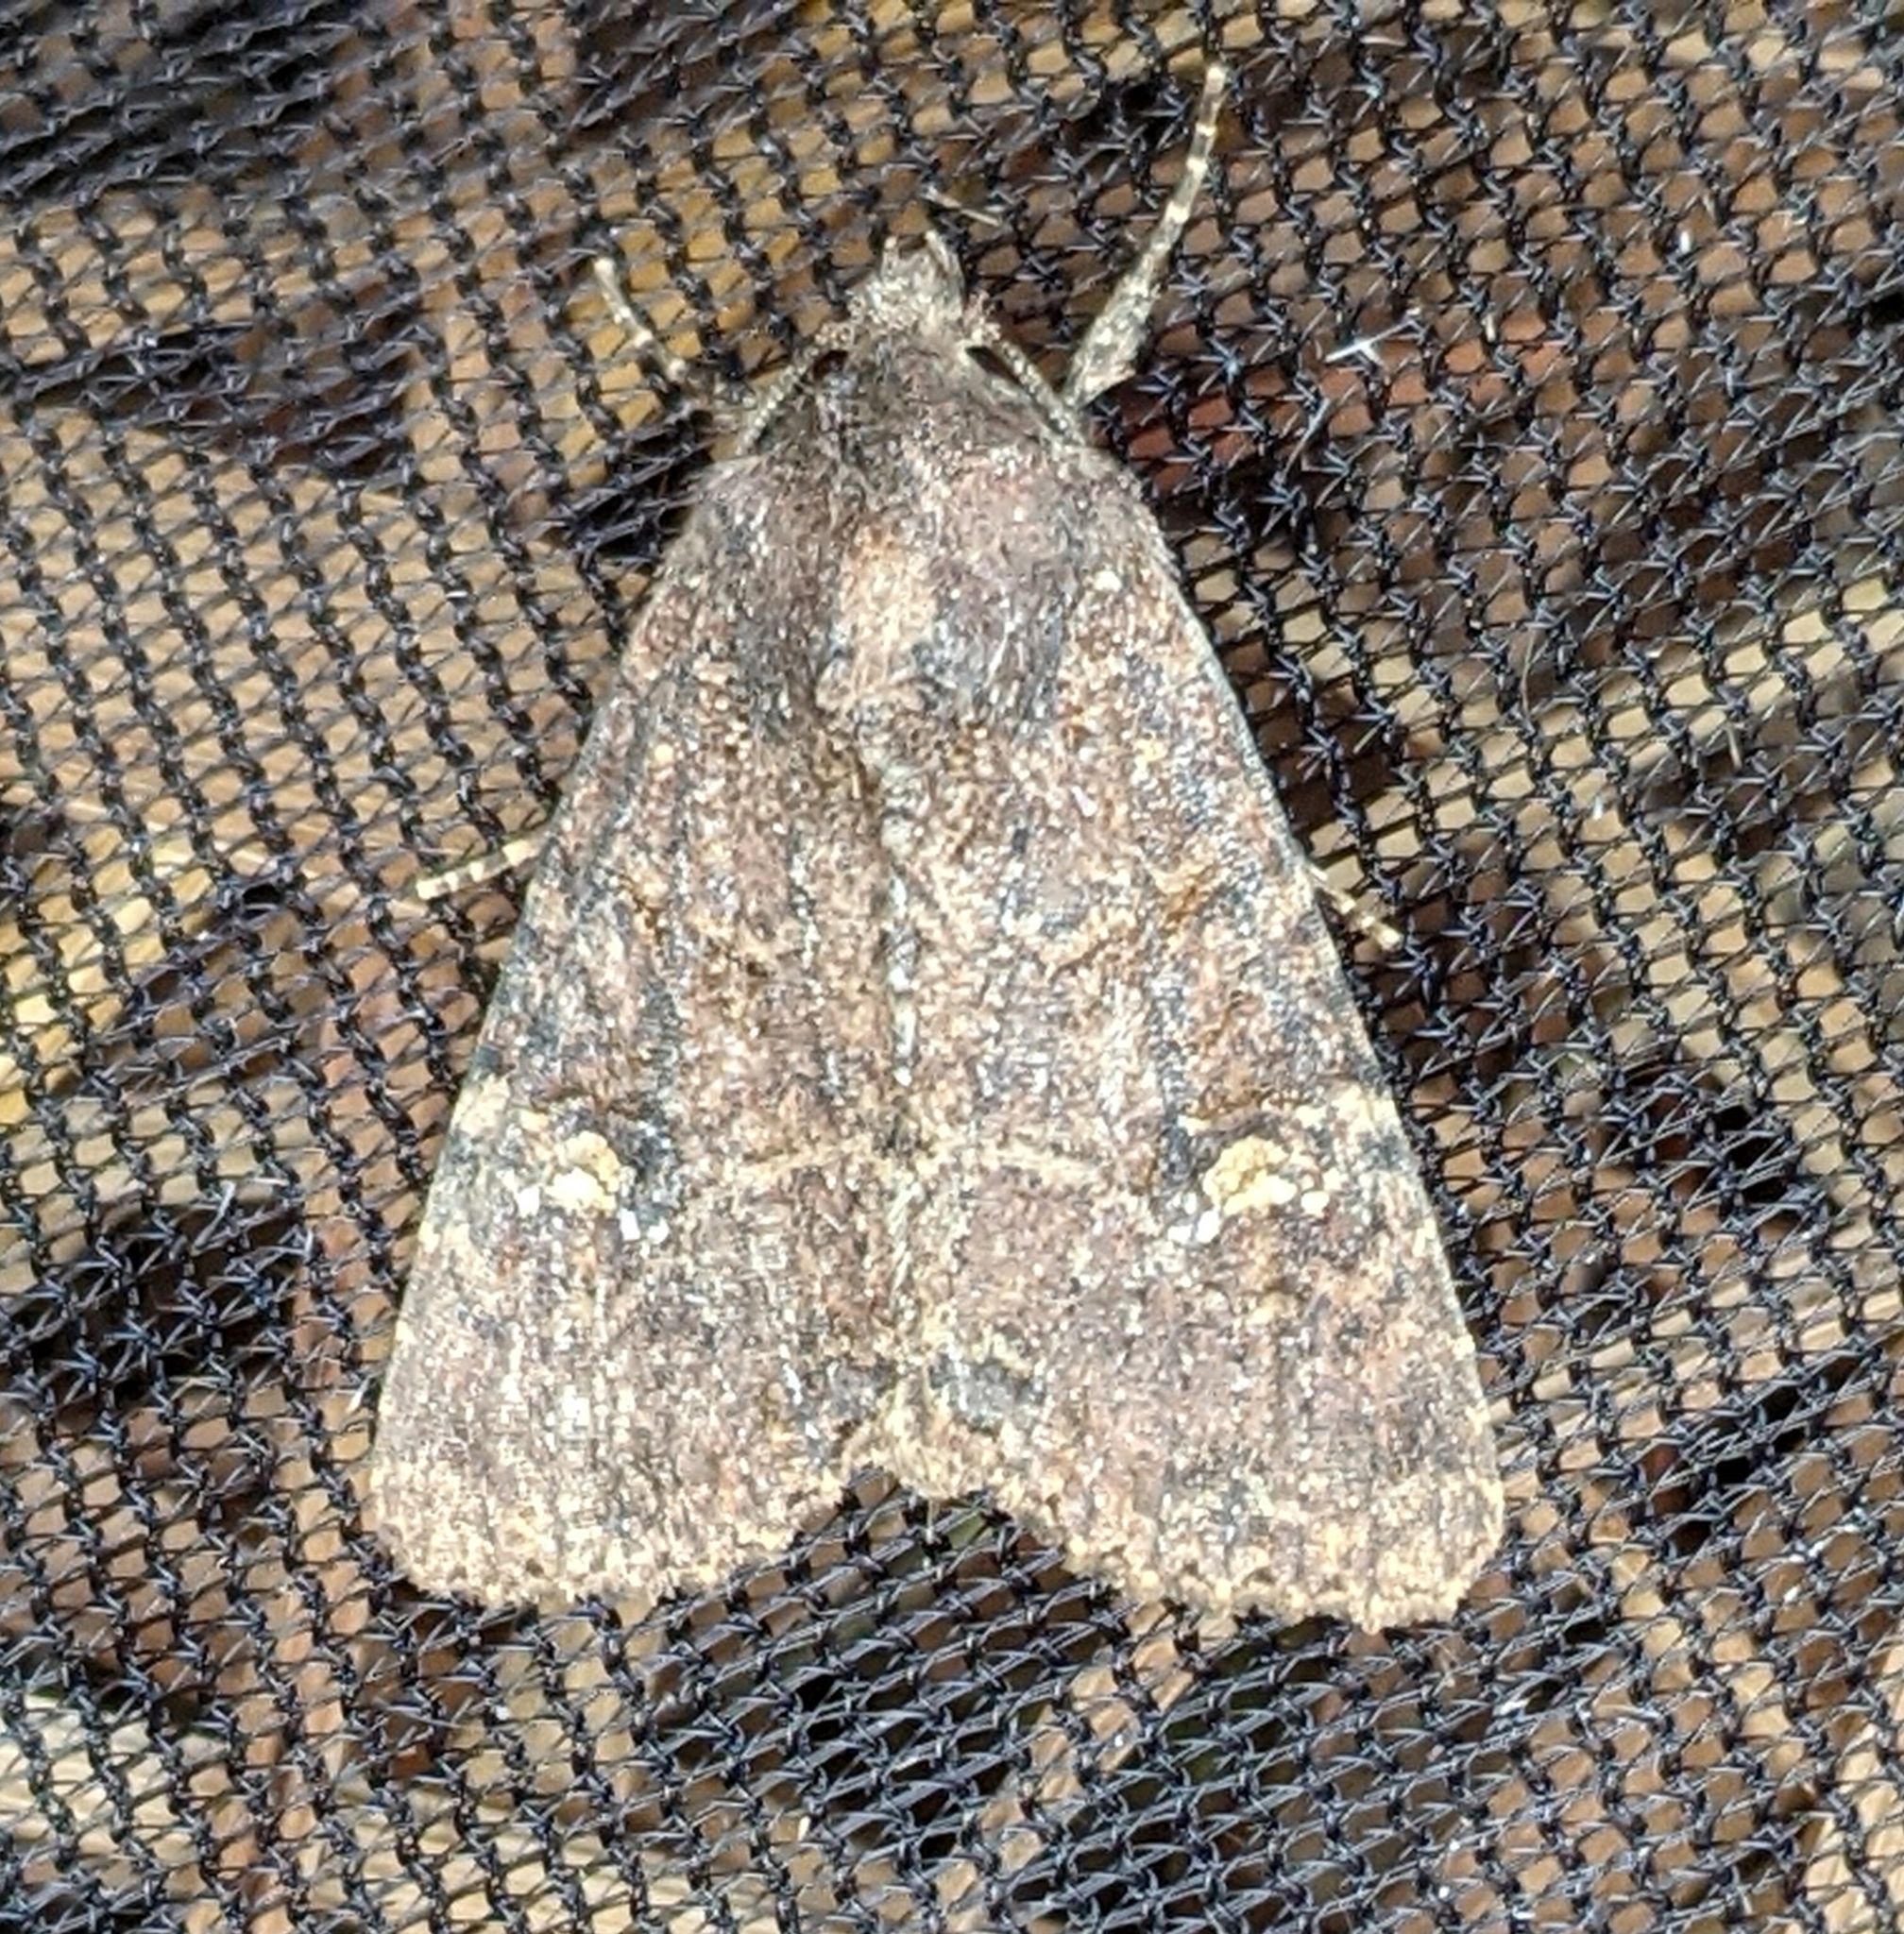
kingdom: Animalia
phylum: Arthropoda
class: Insecta
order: Lepidoptera
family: Noctuidae
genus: Mesapamea
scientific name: Mesapamea secalis
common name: Common rustic
